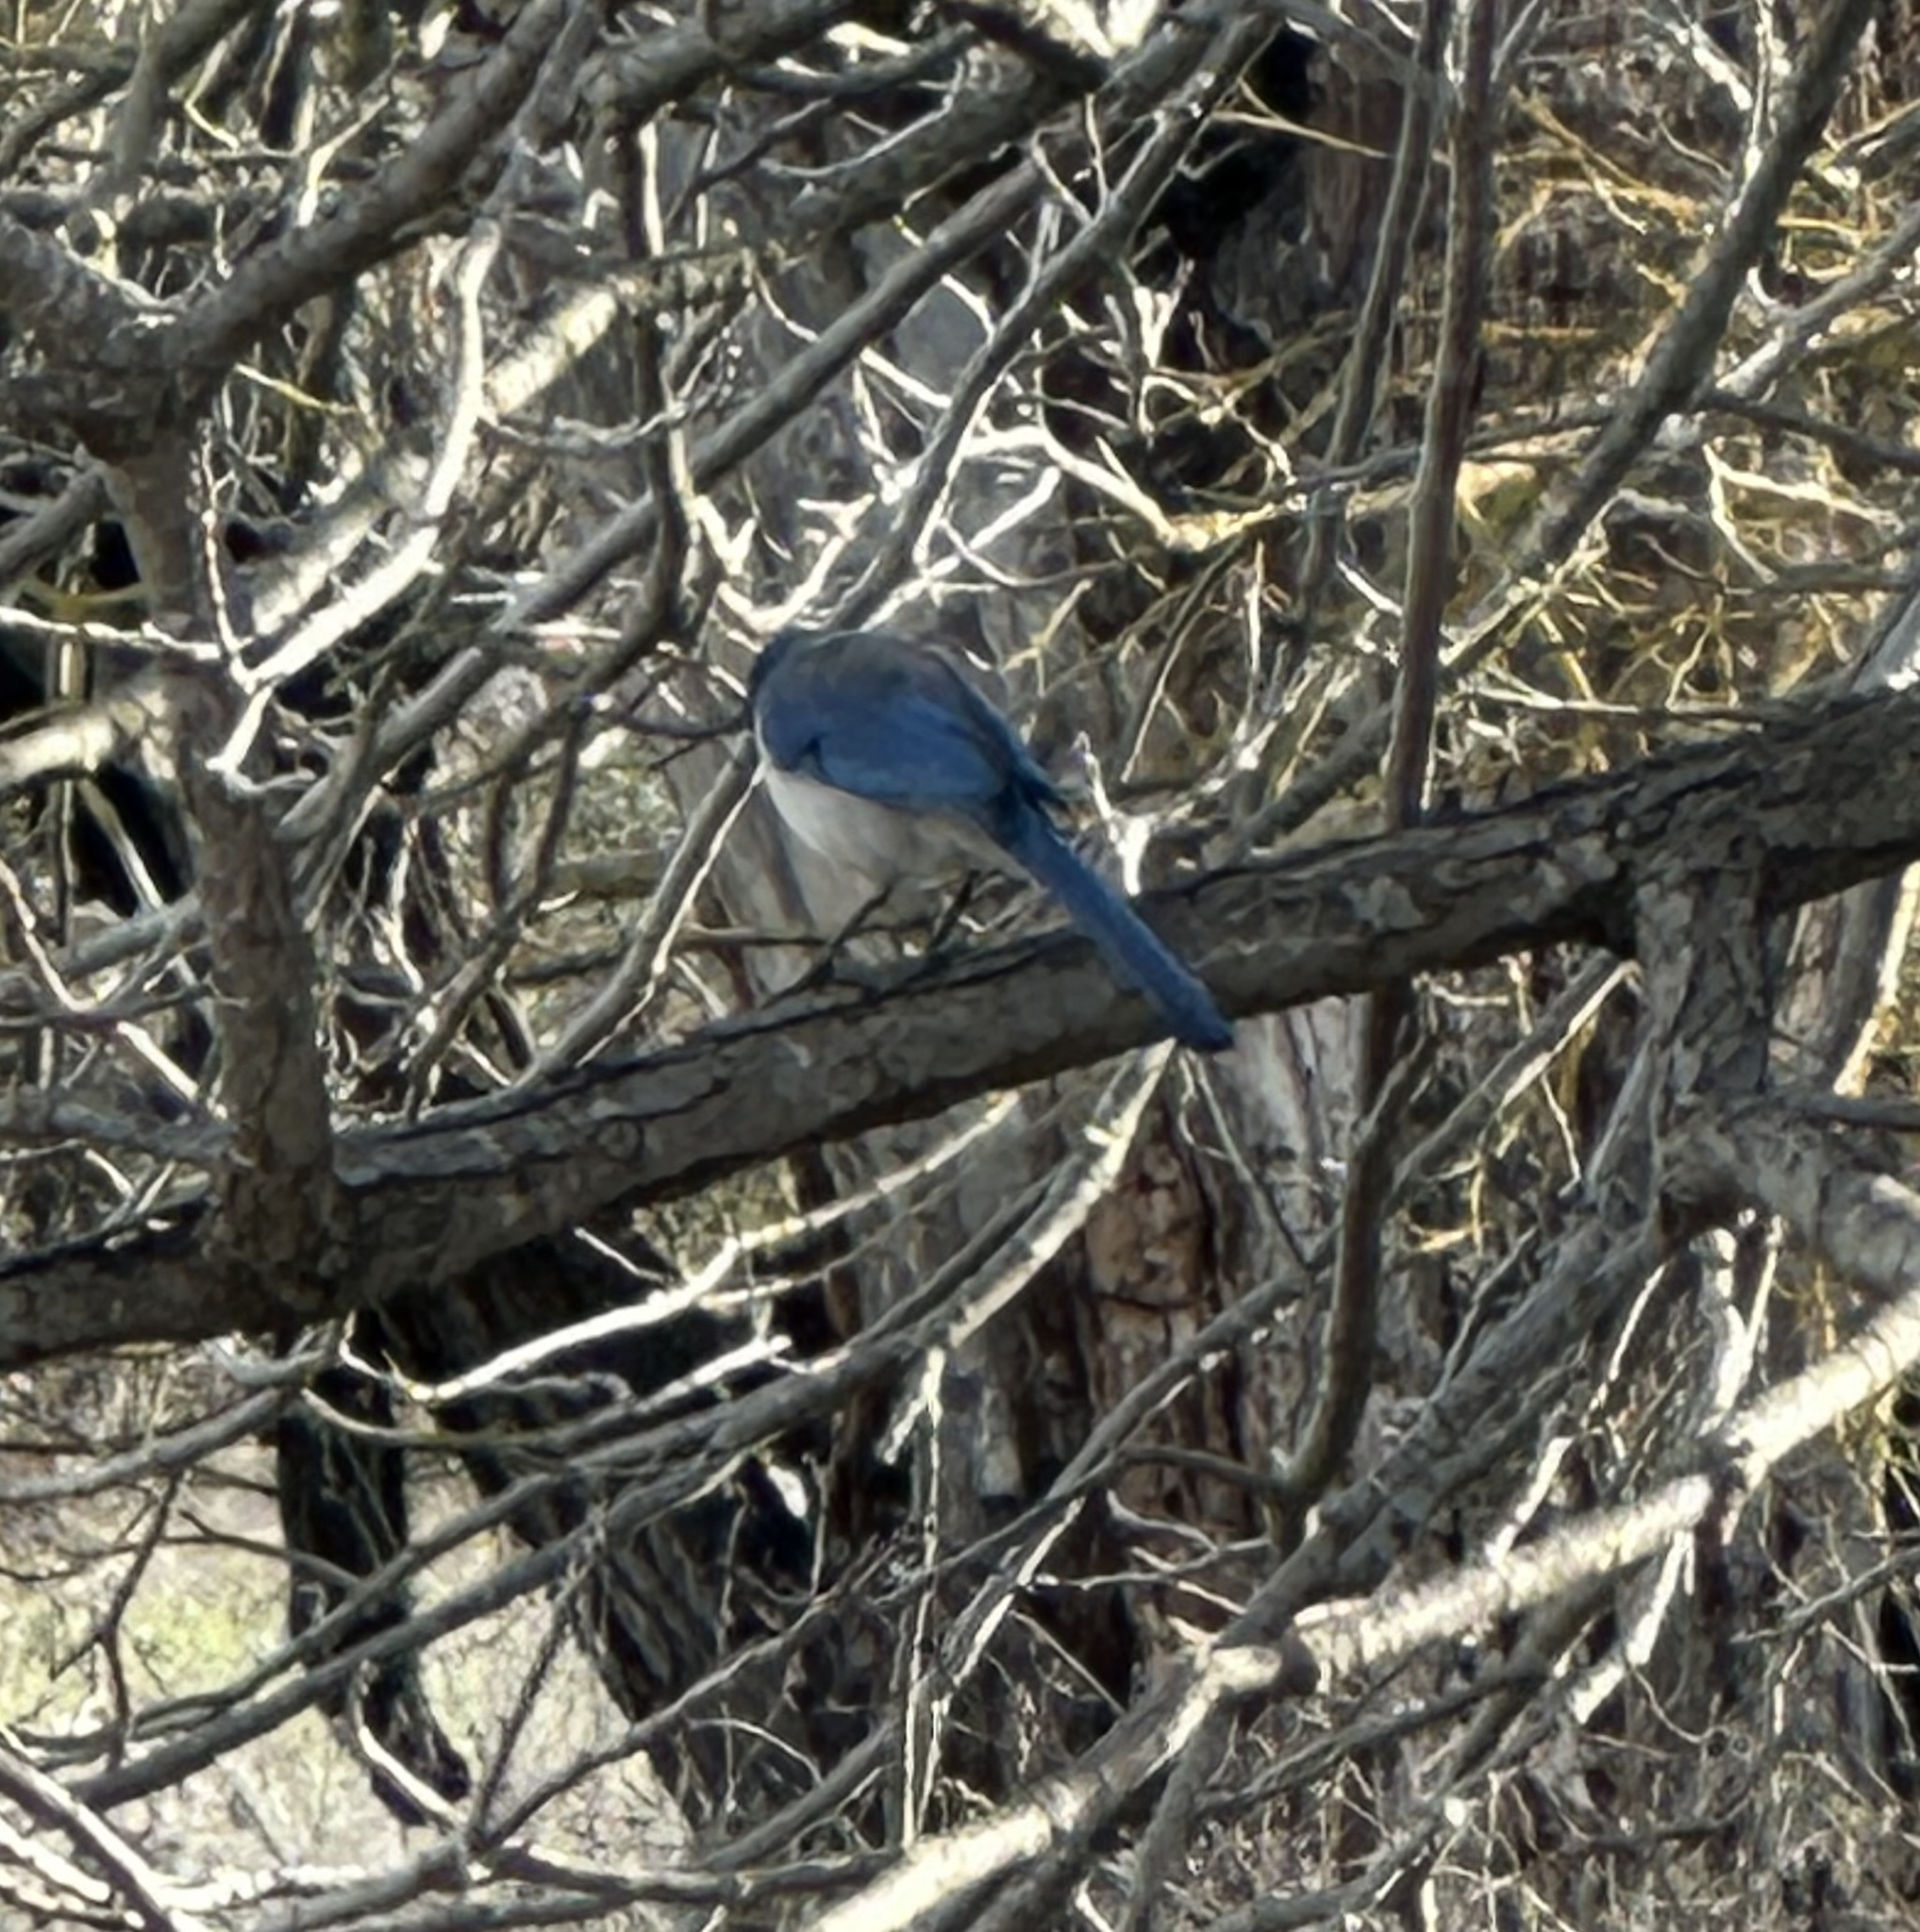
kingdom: Animalia
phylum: Chordata
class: Aves
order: Passeriformes
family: Corvidae
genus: Aphelocoma
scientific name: Aphelocoma californica
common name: California scrub-jay
